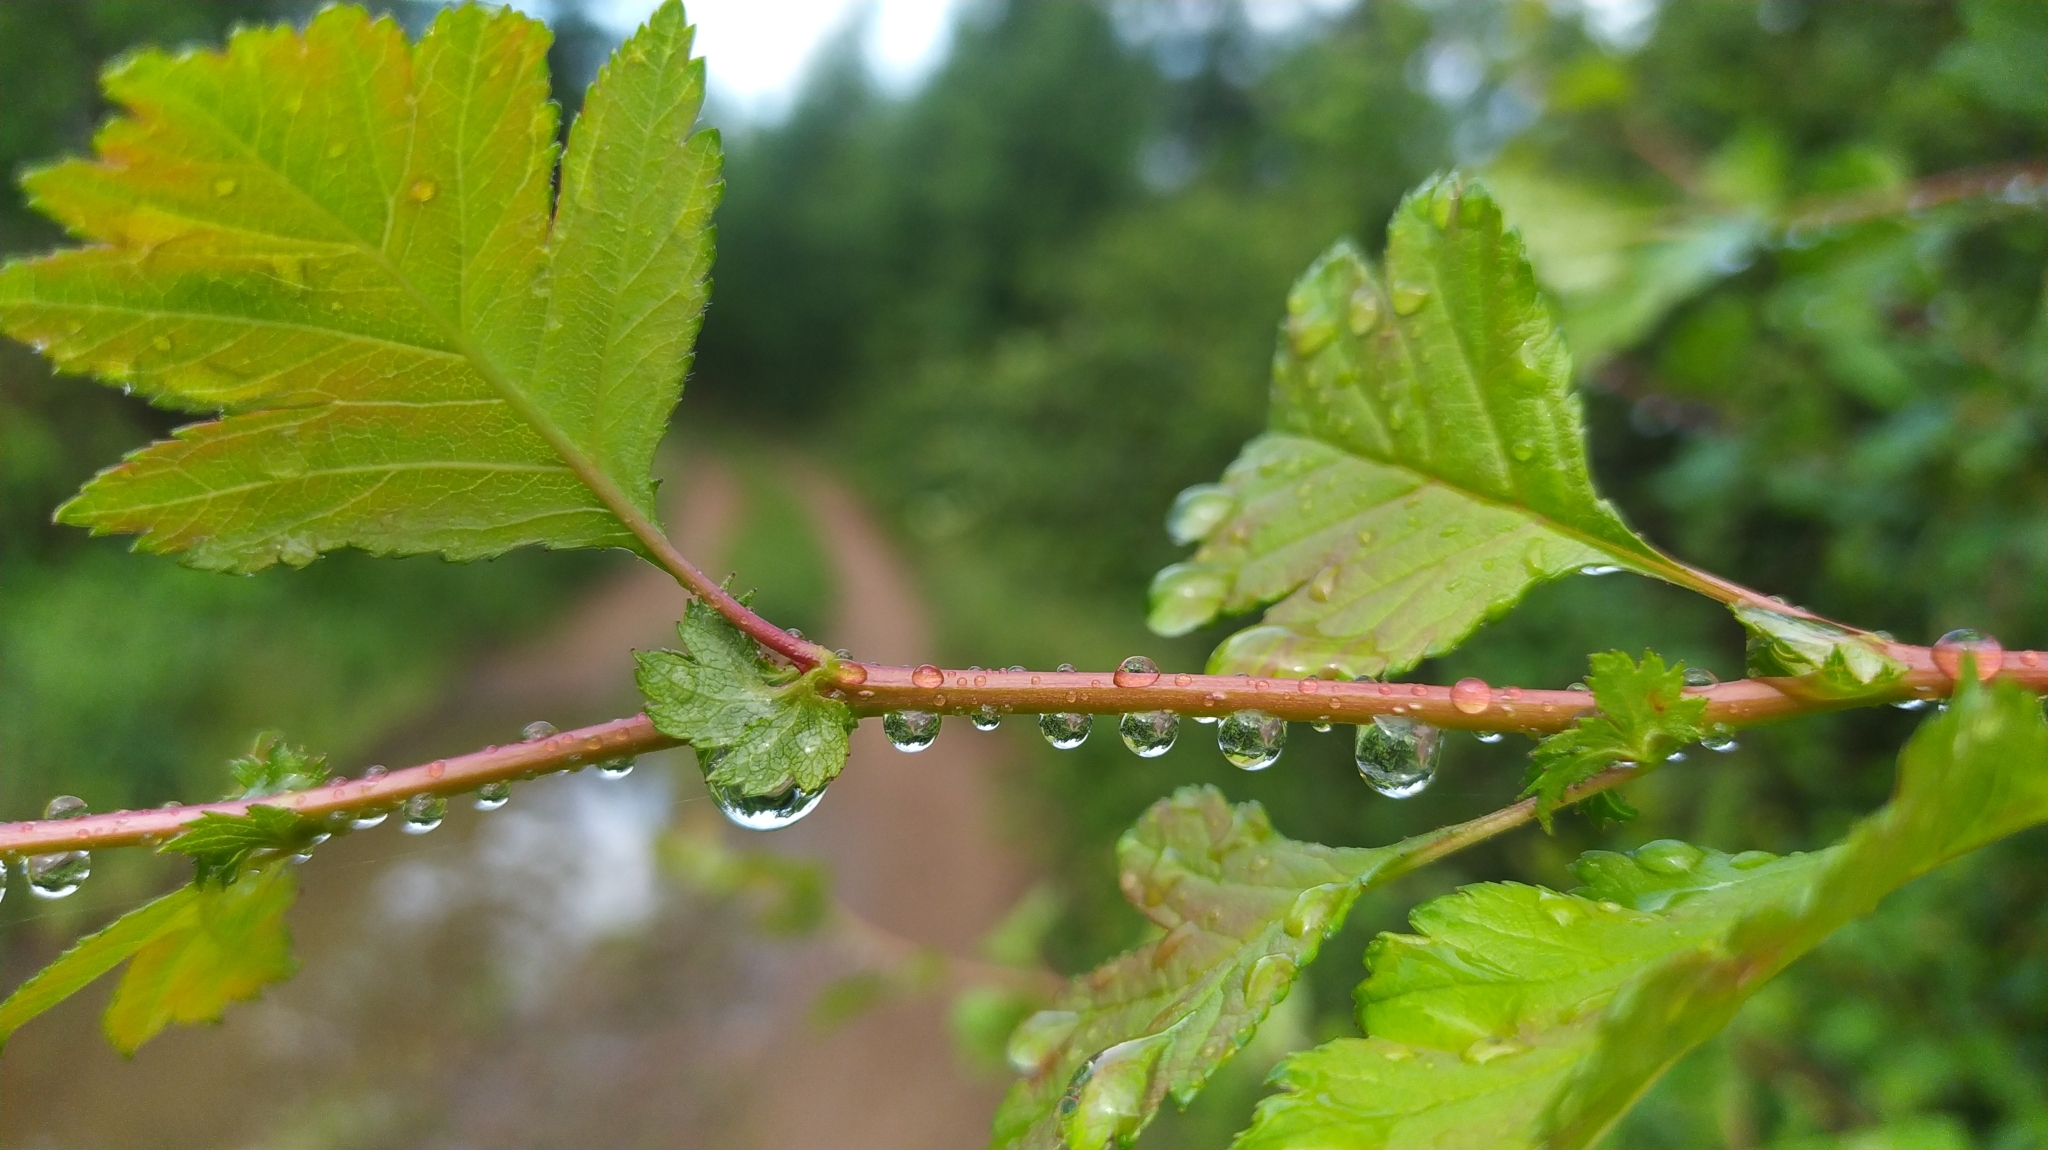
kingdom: Plantae
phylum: Tracheophyta
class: Magnoliopsida
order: Rosales
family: Rosaceae
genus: Crataegus
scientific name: Crataegus sanguinea
